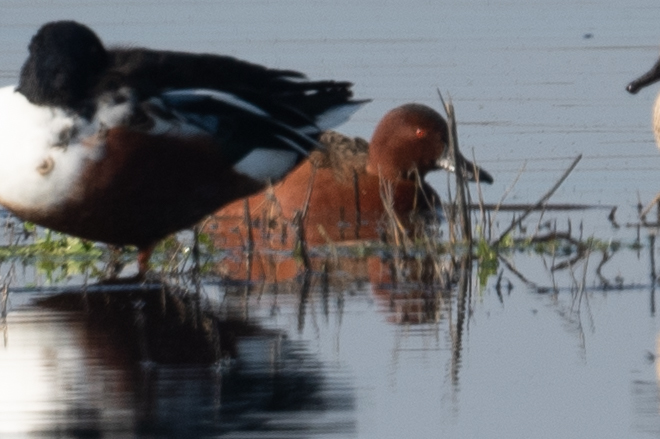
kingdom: Animalia
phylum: Chordata
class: Aves
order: Anseriformes
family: Anatidae
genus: Spatula
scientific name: Spatula cyanoptera
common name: Cinnamon teal
